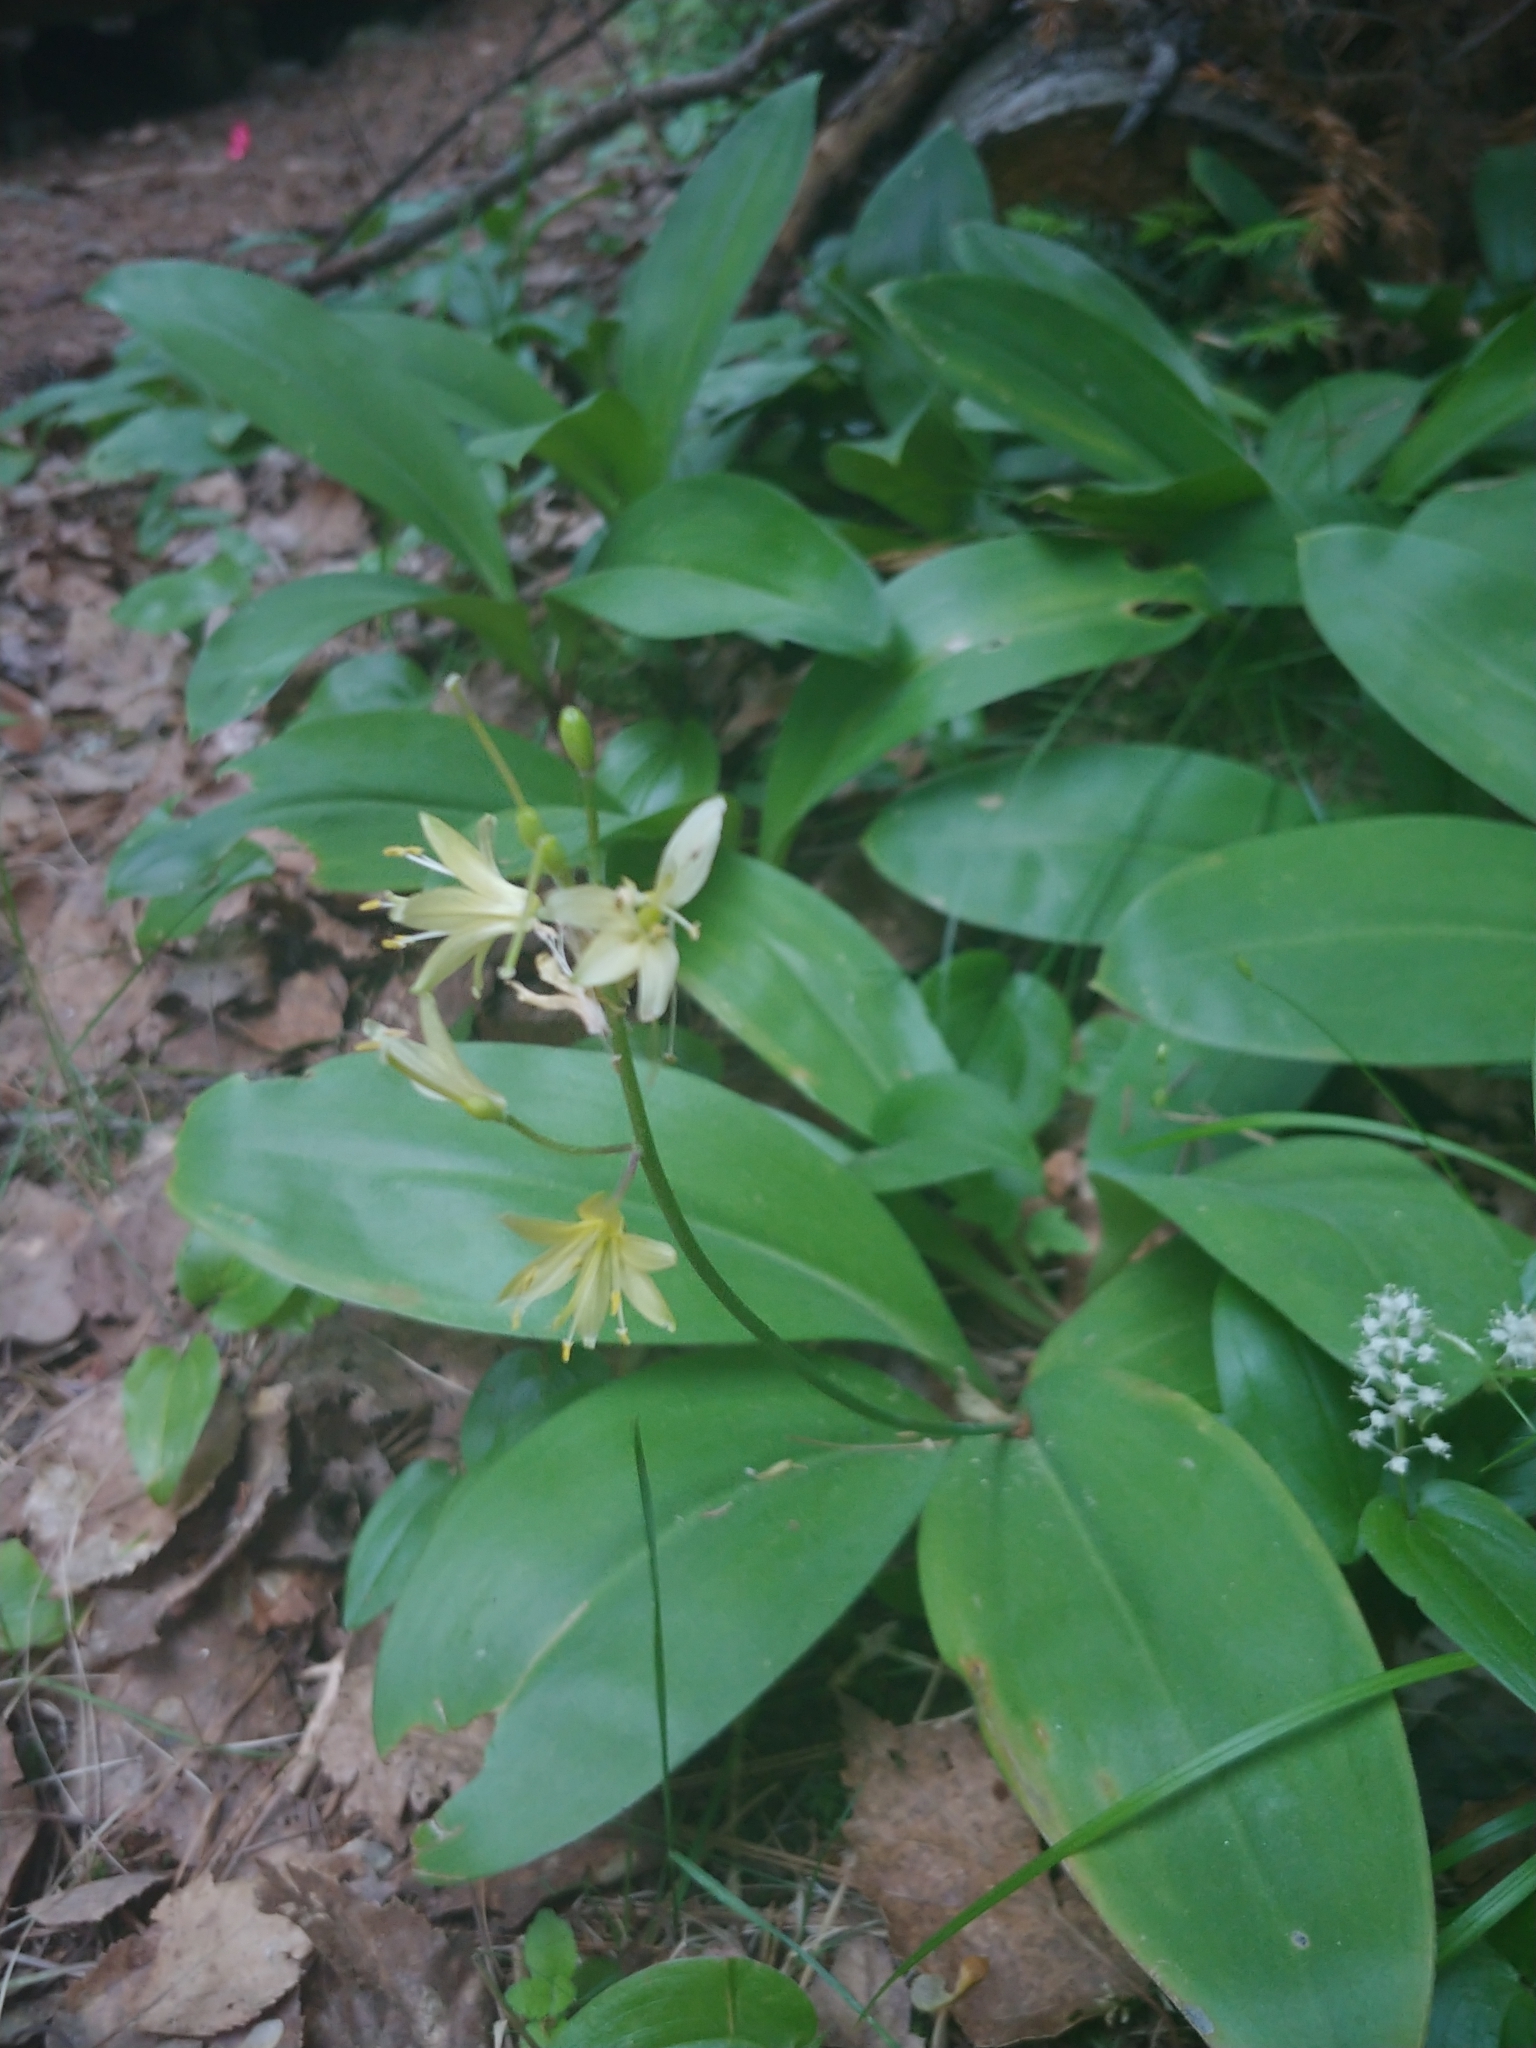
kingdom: Plantae
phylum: Tracheophyta
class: Liliopsida
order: Liliales
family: Liliaceae
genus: Clintonia
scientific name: Clintonia borealis
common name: Yellow clintonia
